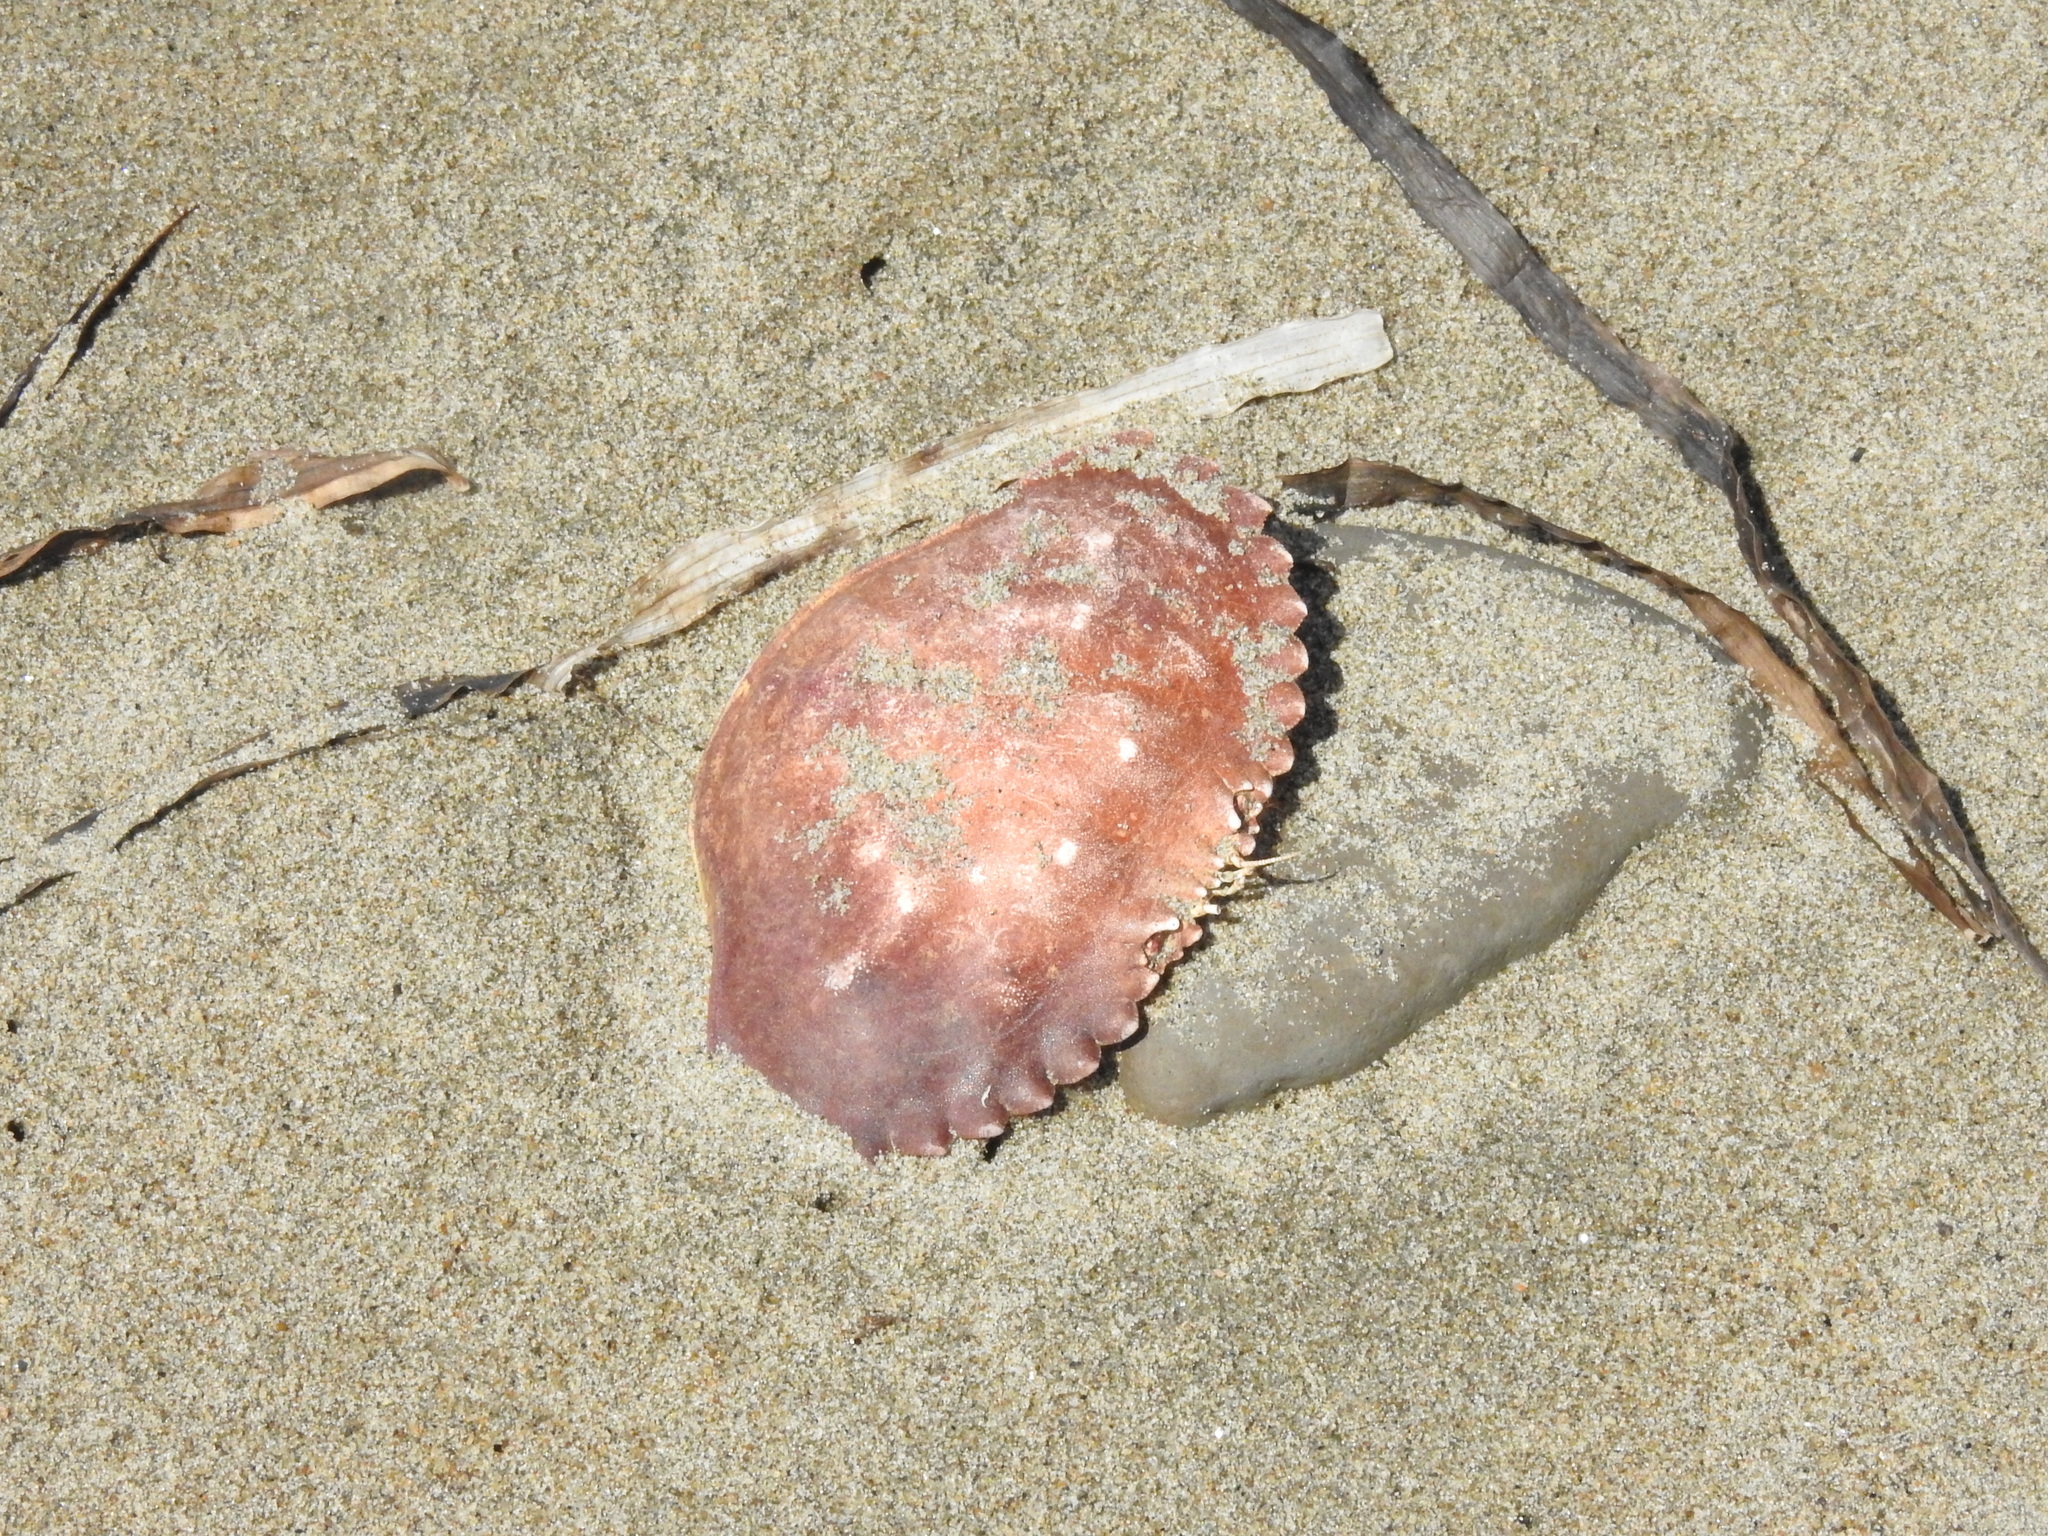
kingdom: Animalia
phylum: Arthropoda
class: Malacostraca
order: Decapoda
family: Cancridae
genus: Metacarcinus
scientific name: Metacarcinus anthonyi
